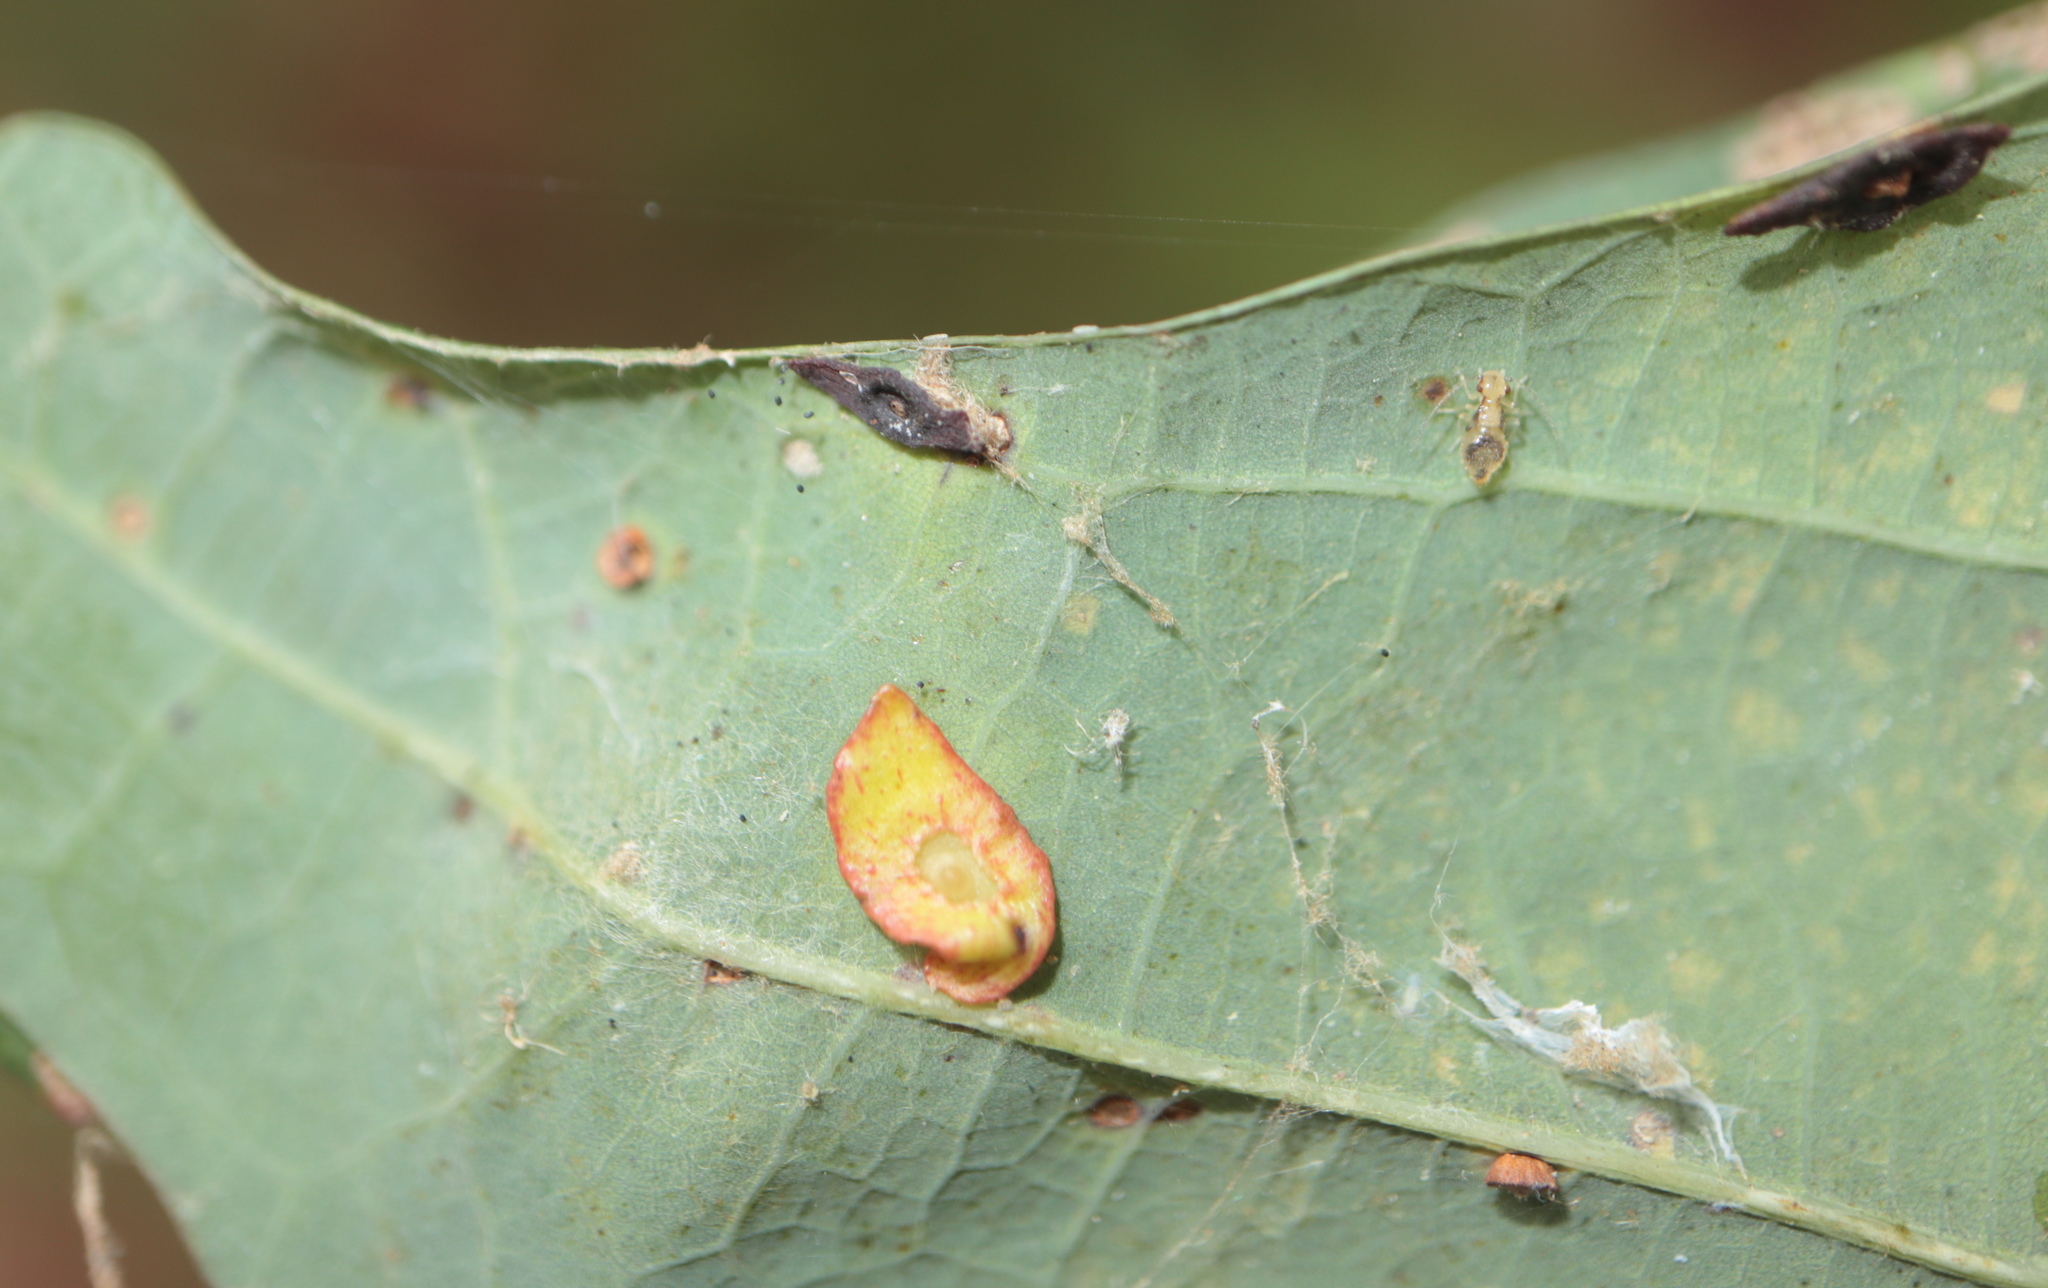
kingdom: Animalia
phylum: Arthropoda
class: Insecta
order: Hymenoptera
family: Cynipidae
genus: Phylloteras
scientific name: Phylloteras
